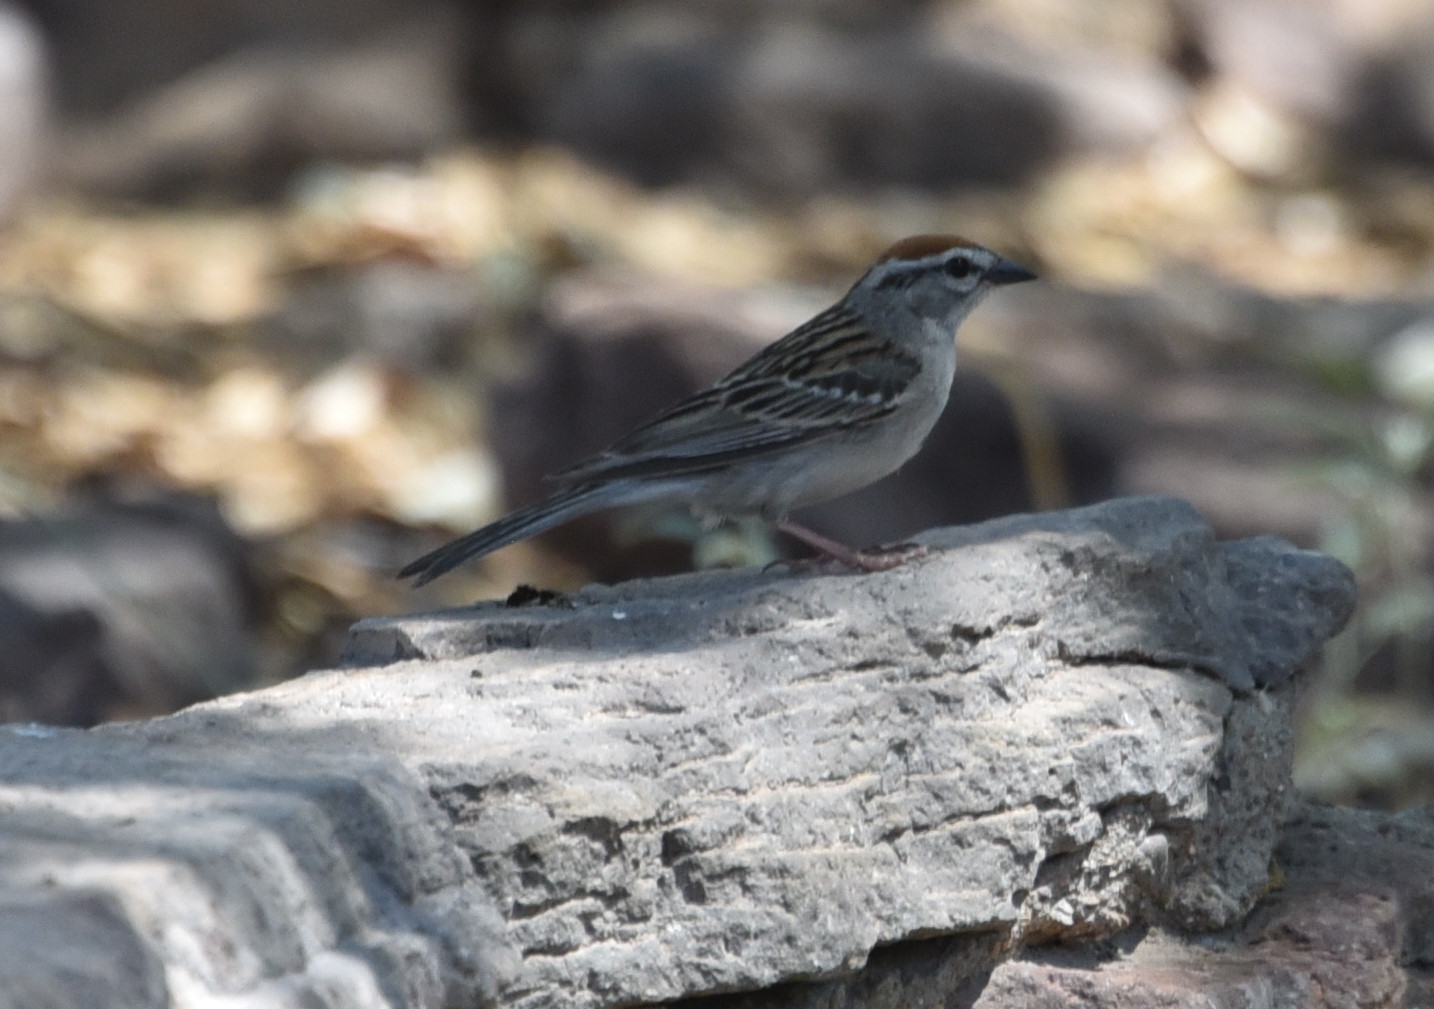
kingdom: Animalia
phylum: Chordata
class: Aves
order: Passeriformes
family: Passerellidae
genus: Spizella
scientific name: Spizella passerina
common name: Chipping sparrow
